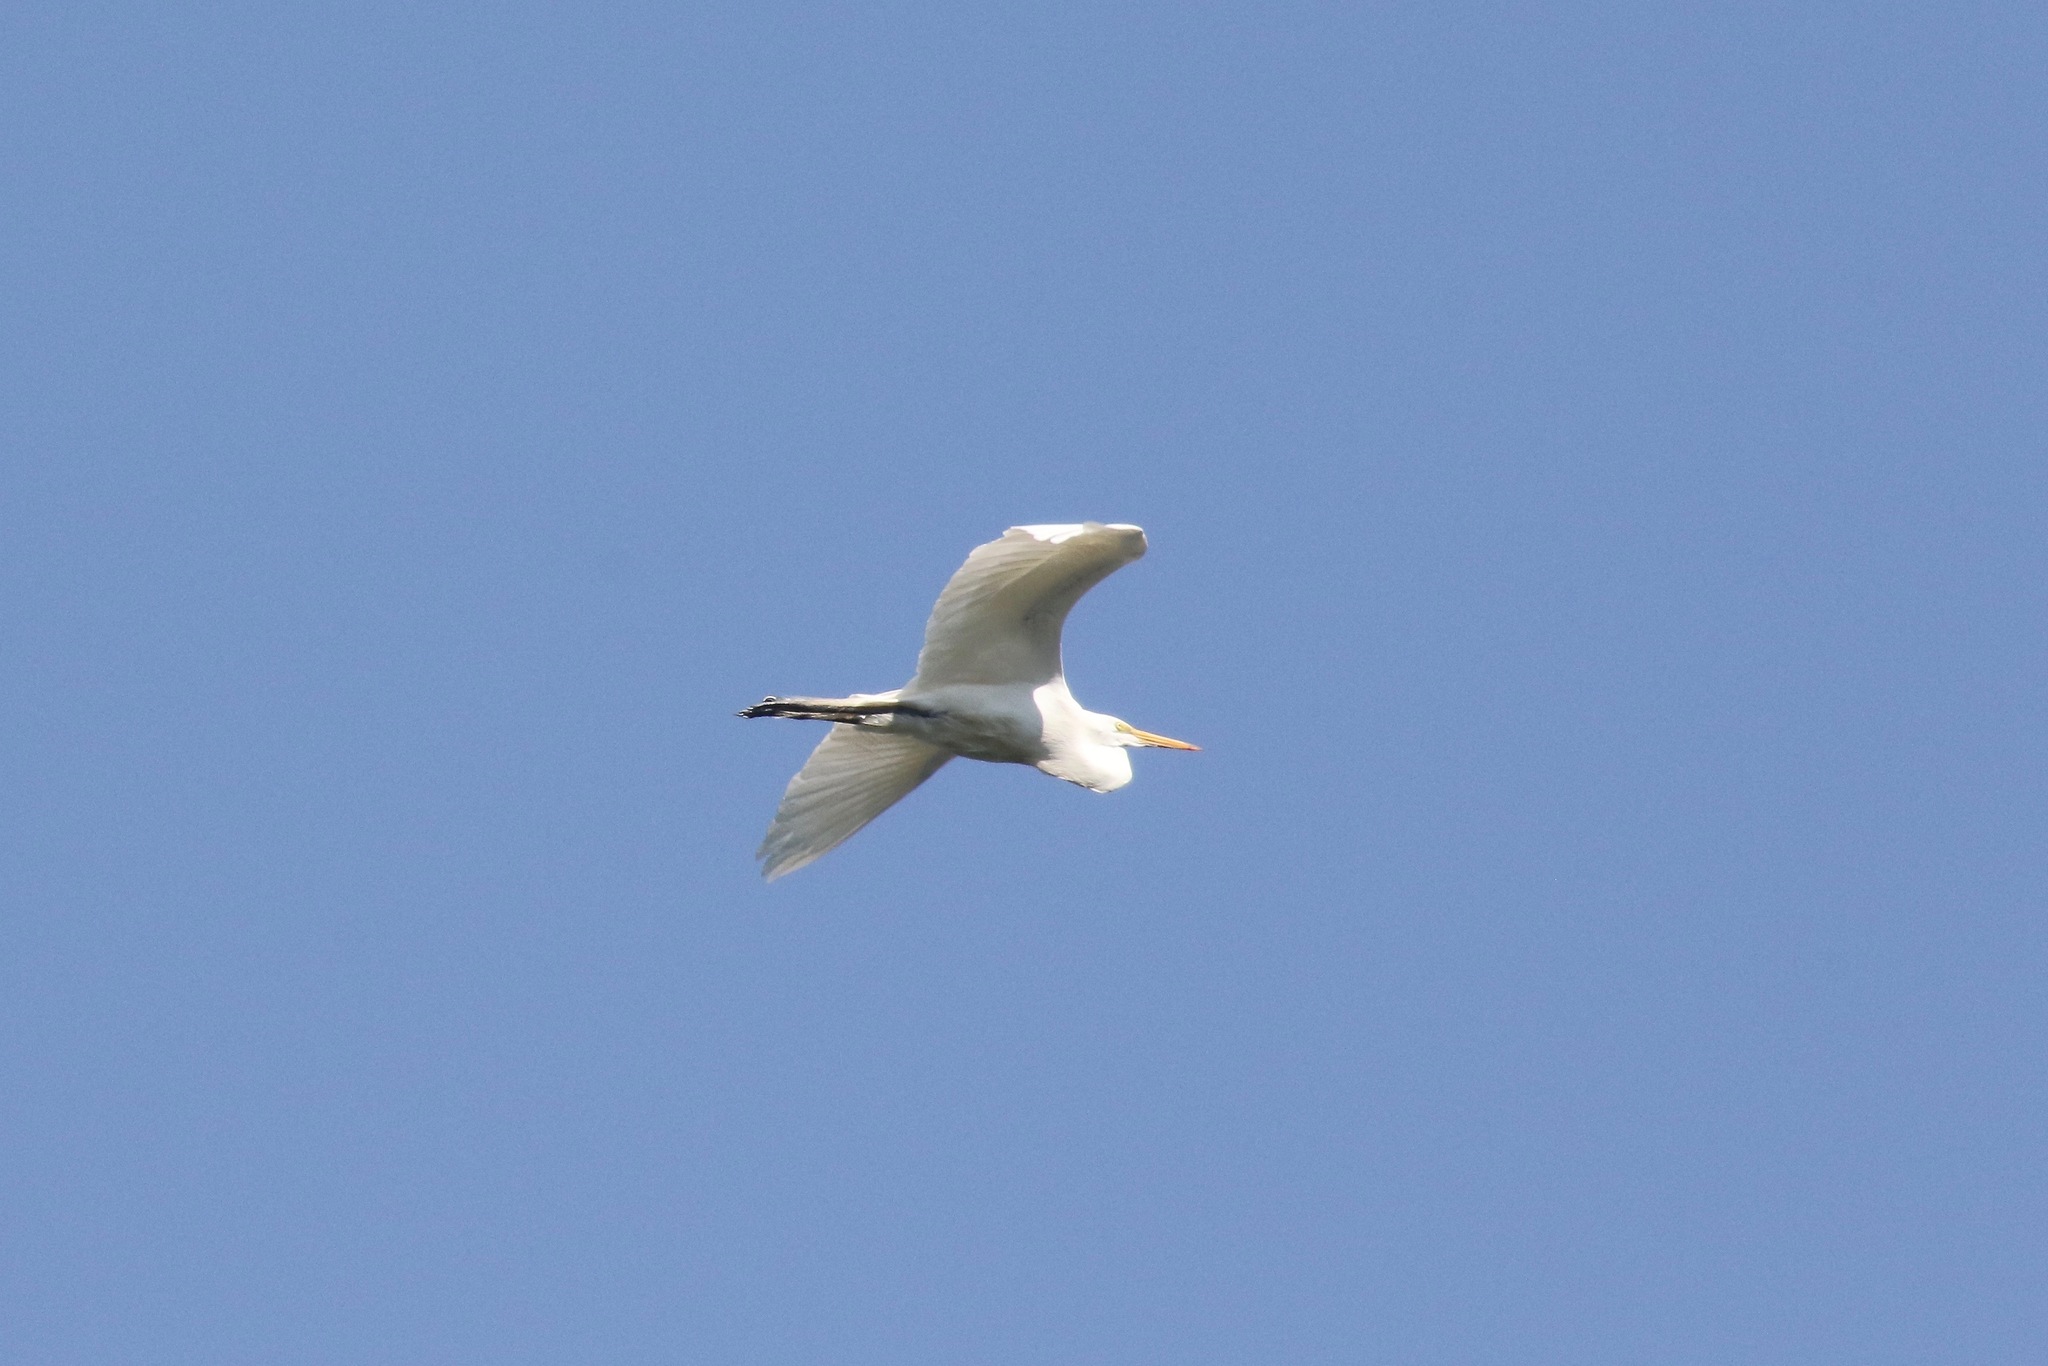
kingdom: Animalia
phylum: Chordata
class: Aves
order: Pelecaniformes
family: Ardeidae
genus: Ardea
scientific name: Ardea alba
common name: Great egret
